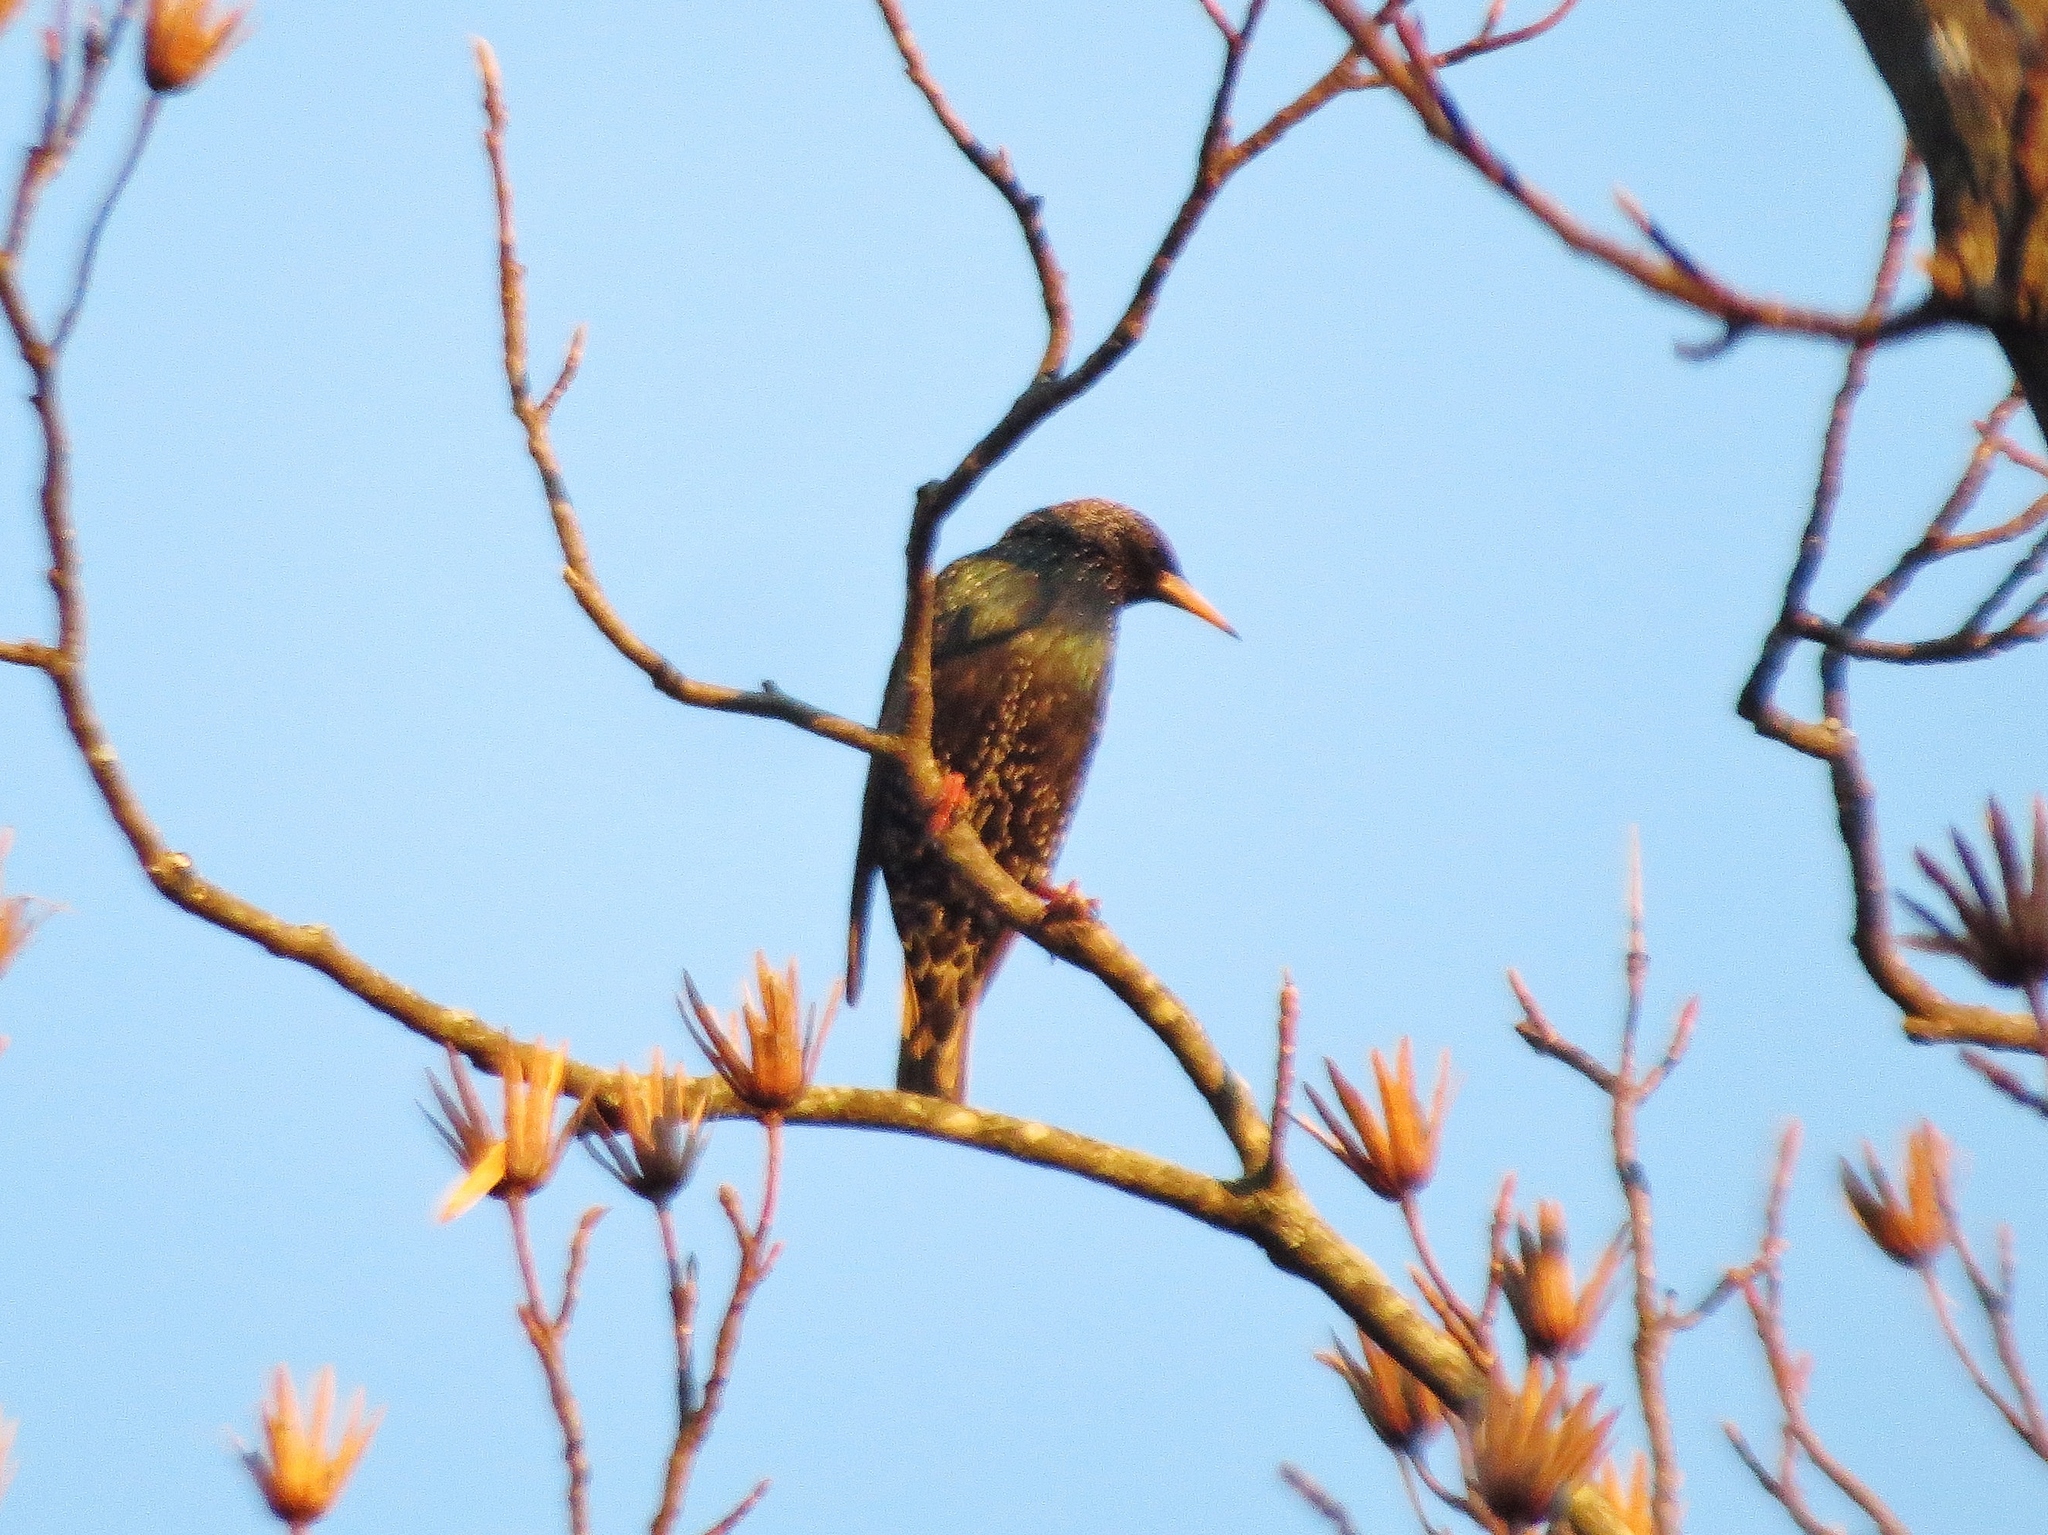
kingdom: Animalia
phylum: Chordata
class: Aves
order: Passeriformes
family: Sturnidae
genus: Sturnus
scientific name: Sturnus vulgaris
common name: Common starling
